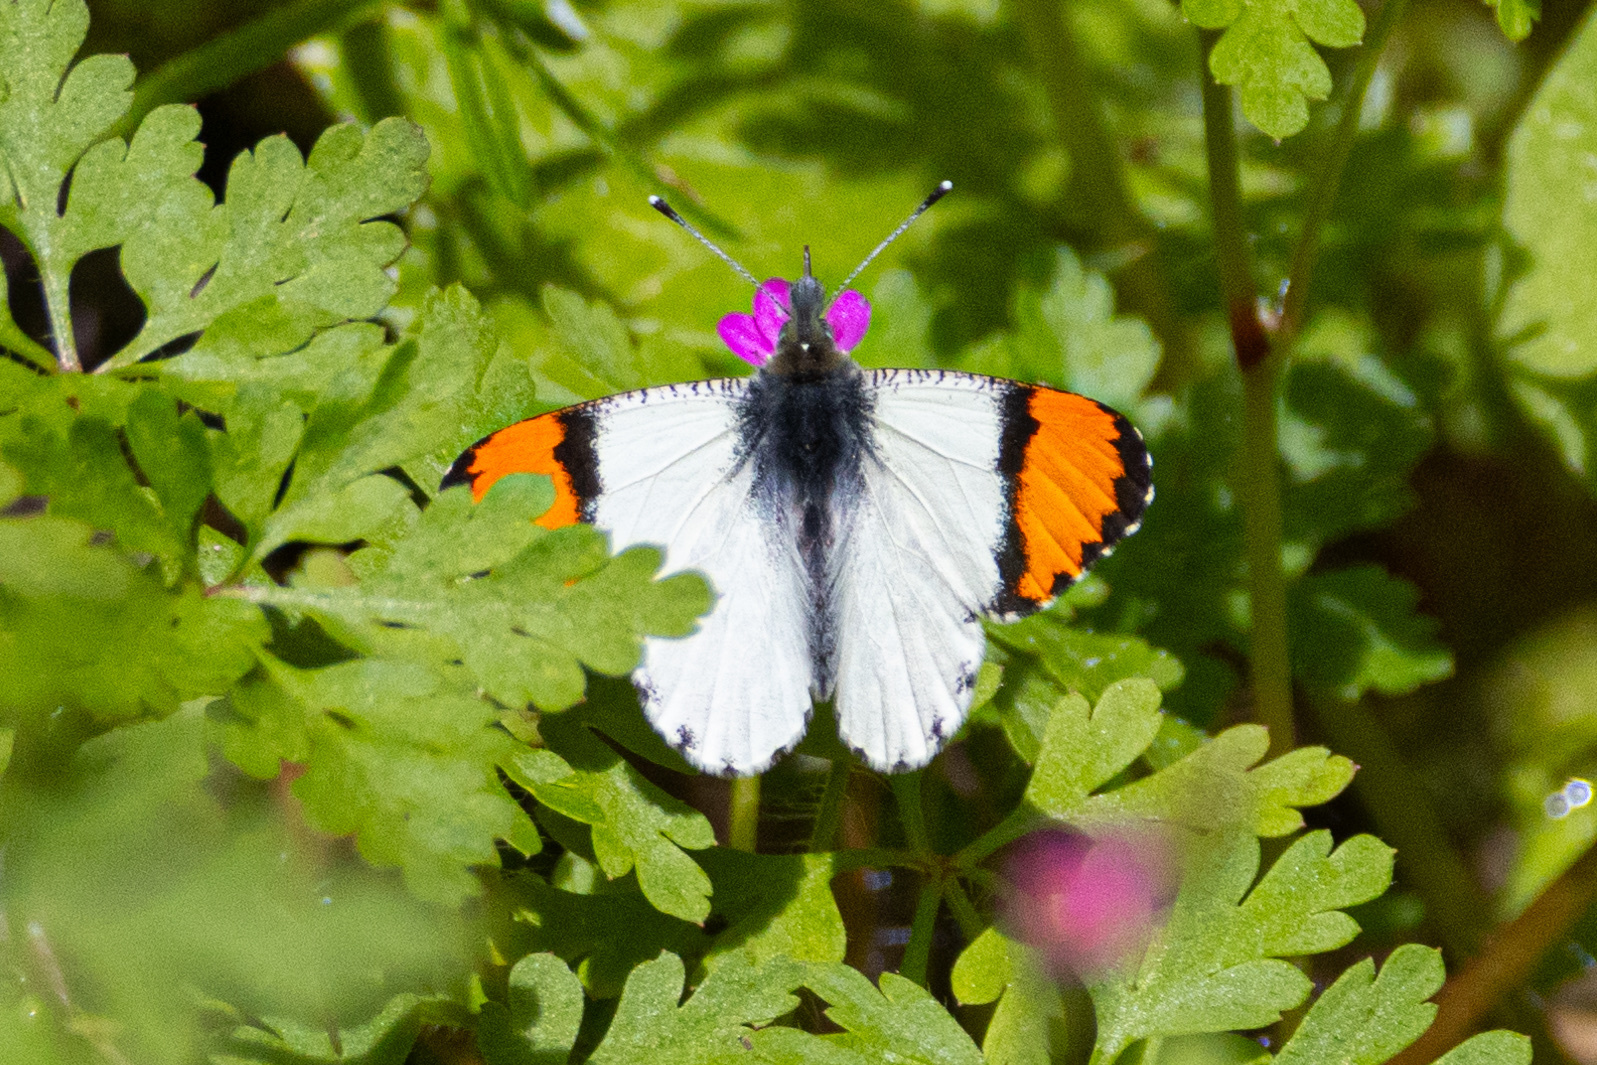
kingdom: Animalia
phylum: Arthropoda
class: Insecta
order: Lepidoptera
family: Pieridae
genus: Anthocharis
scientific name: Anthocharis sara
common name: Sara's orangetip
